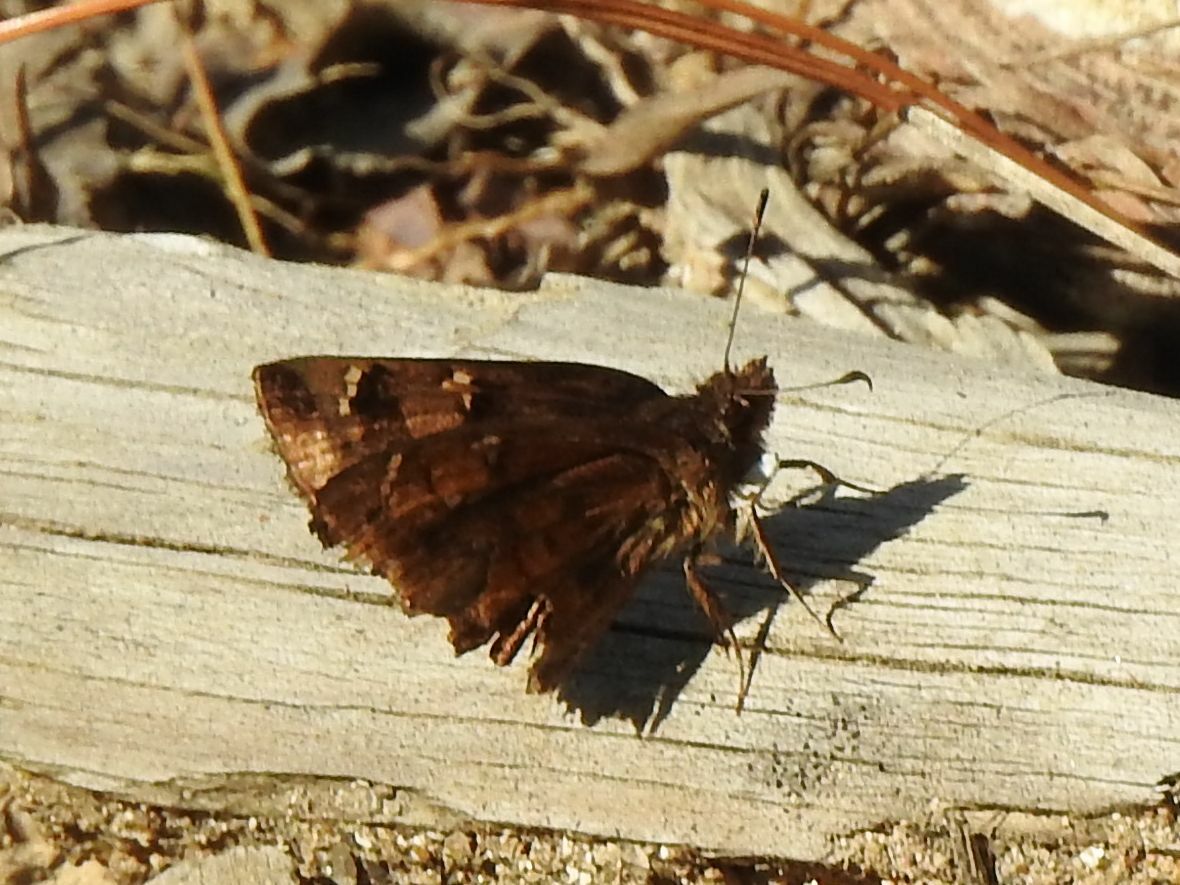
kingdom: Animalia
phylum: Arthropoda
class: Insecta
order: Lepidoptera
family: Hesperiidae
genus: Eretis
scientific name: Eretis djaelaelae
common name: Marbled elf
